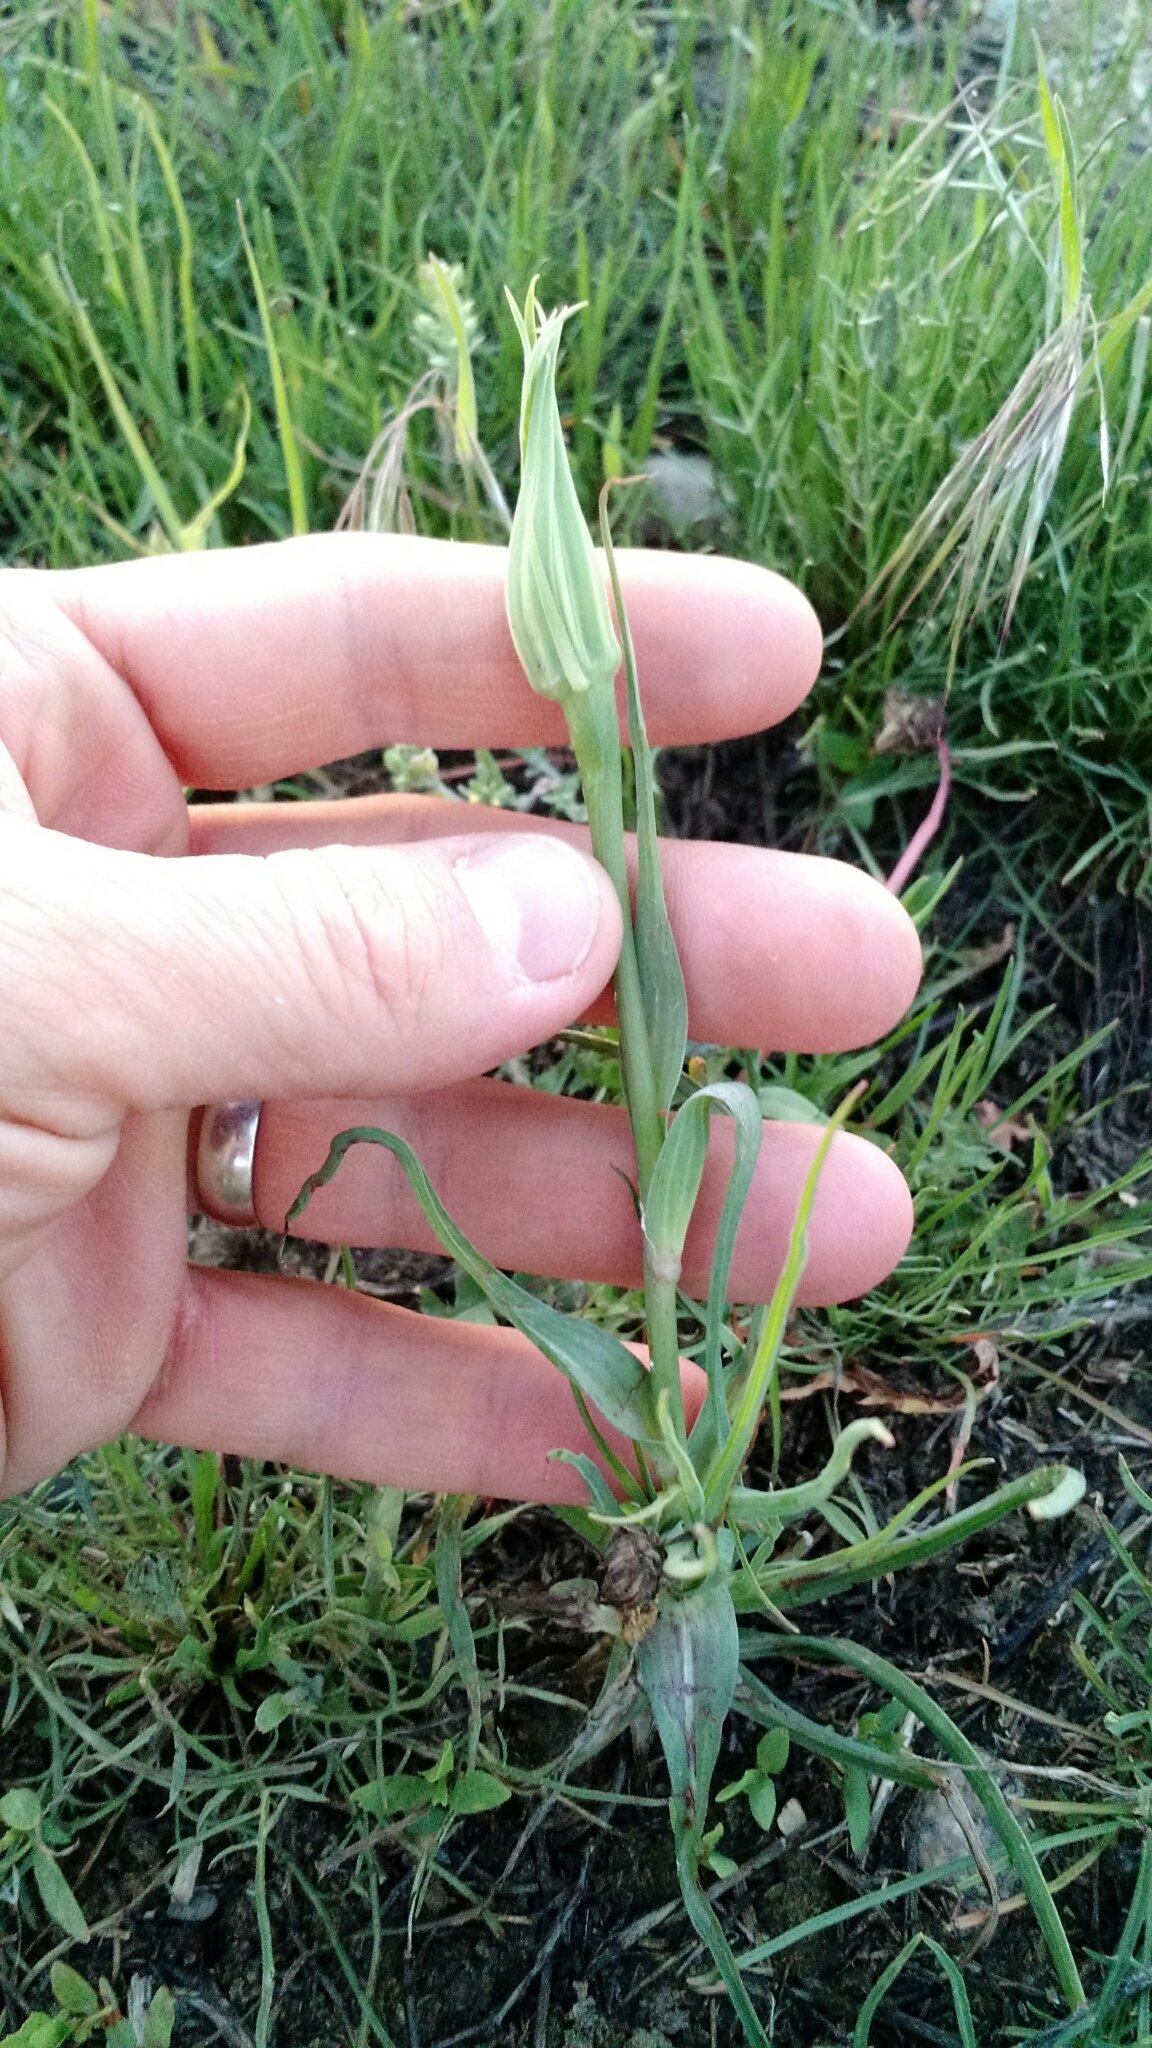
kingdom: Plantae
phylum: Tracheophyta
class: Magnoliopsida
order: Asterales
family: Asteraceae
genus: Tragopogon
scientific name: Tragopogon dubius
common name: Yellow salsify
